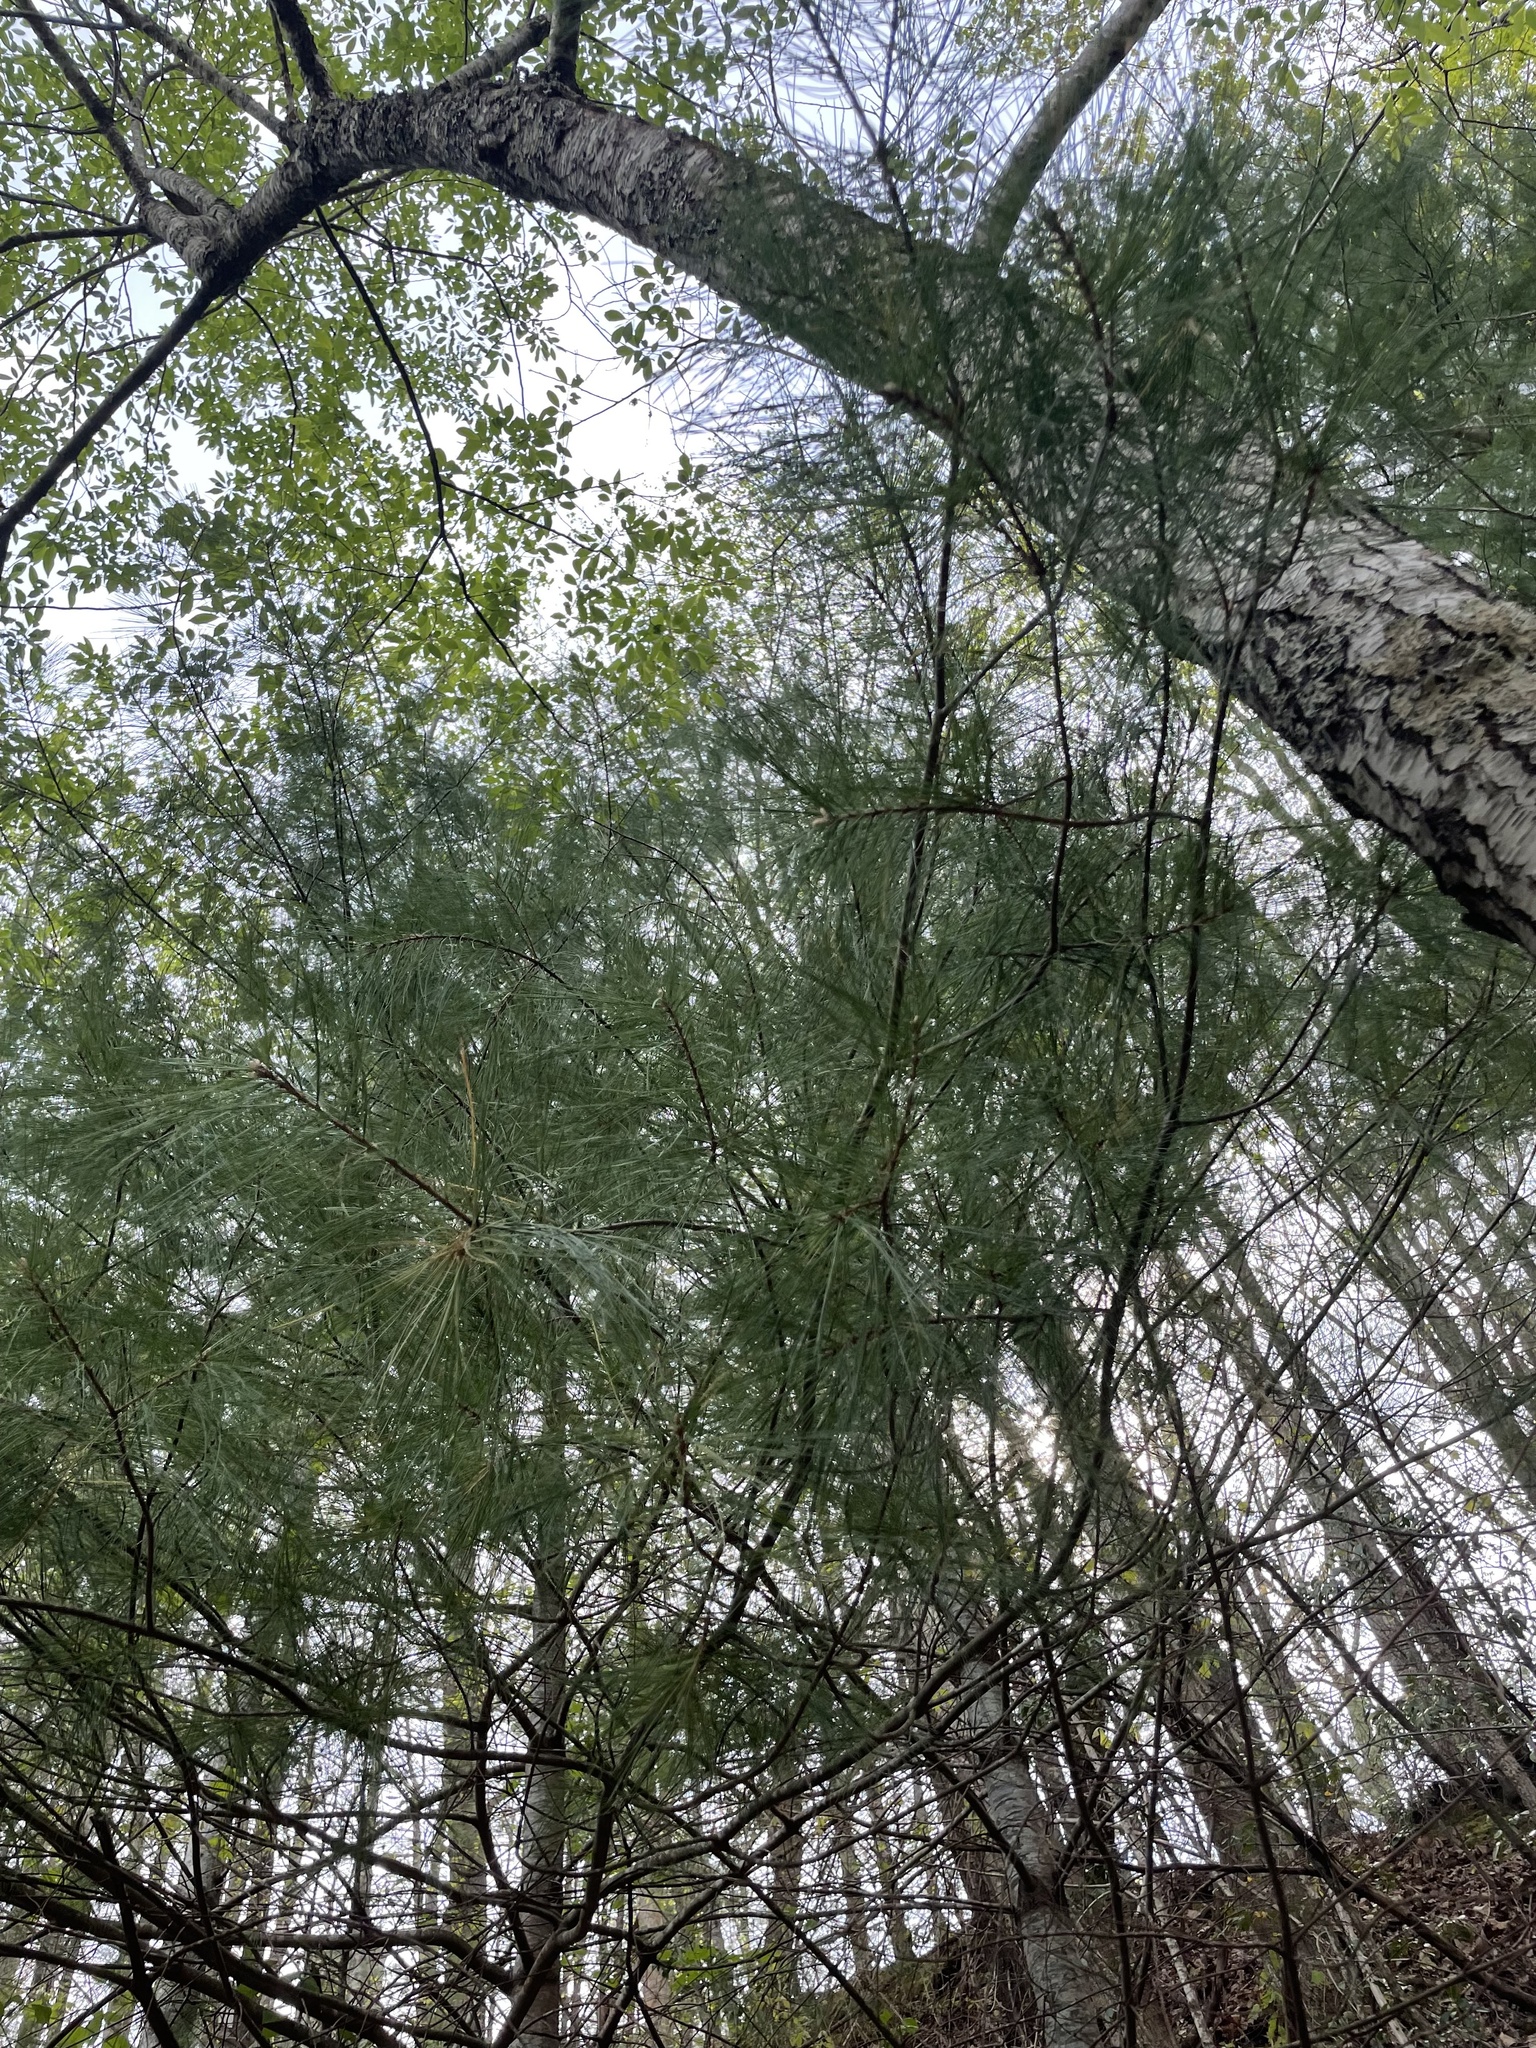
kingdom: Plantae
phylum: Tracheophyta
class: Pinopsida
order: Pinales
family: Pinaceae
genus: Pinus
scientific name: Pinus strobus
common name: Weymouth pine
